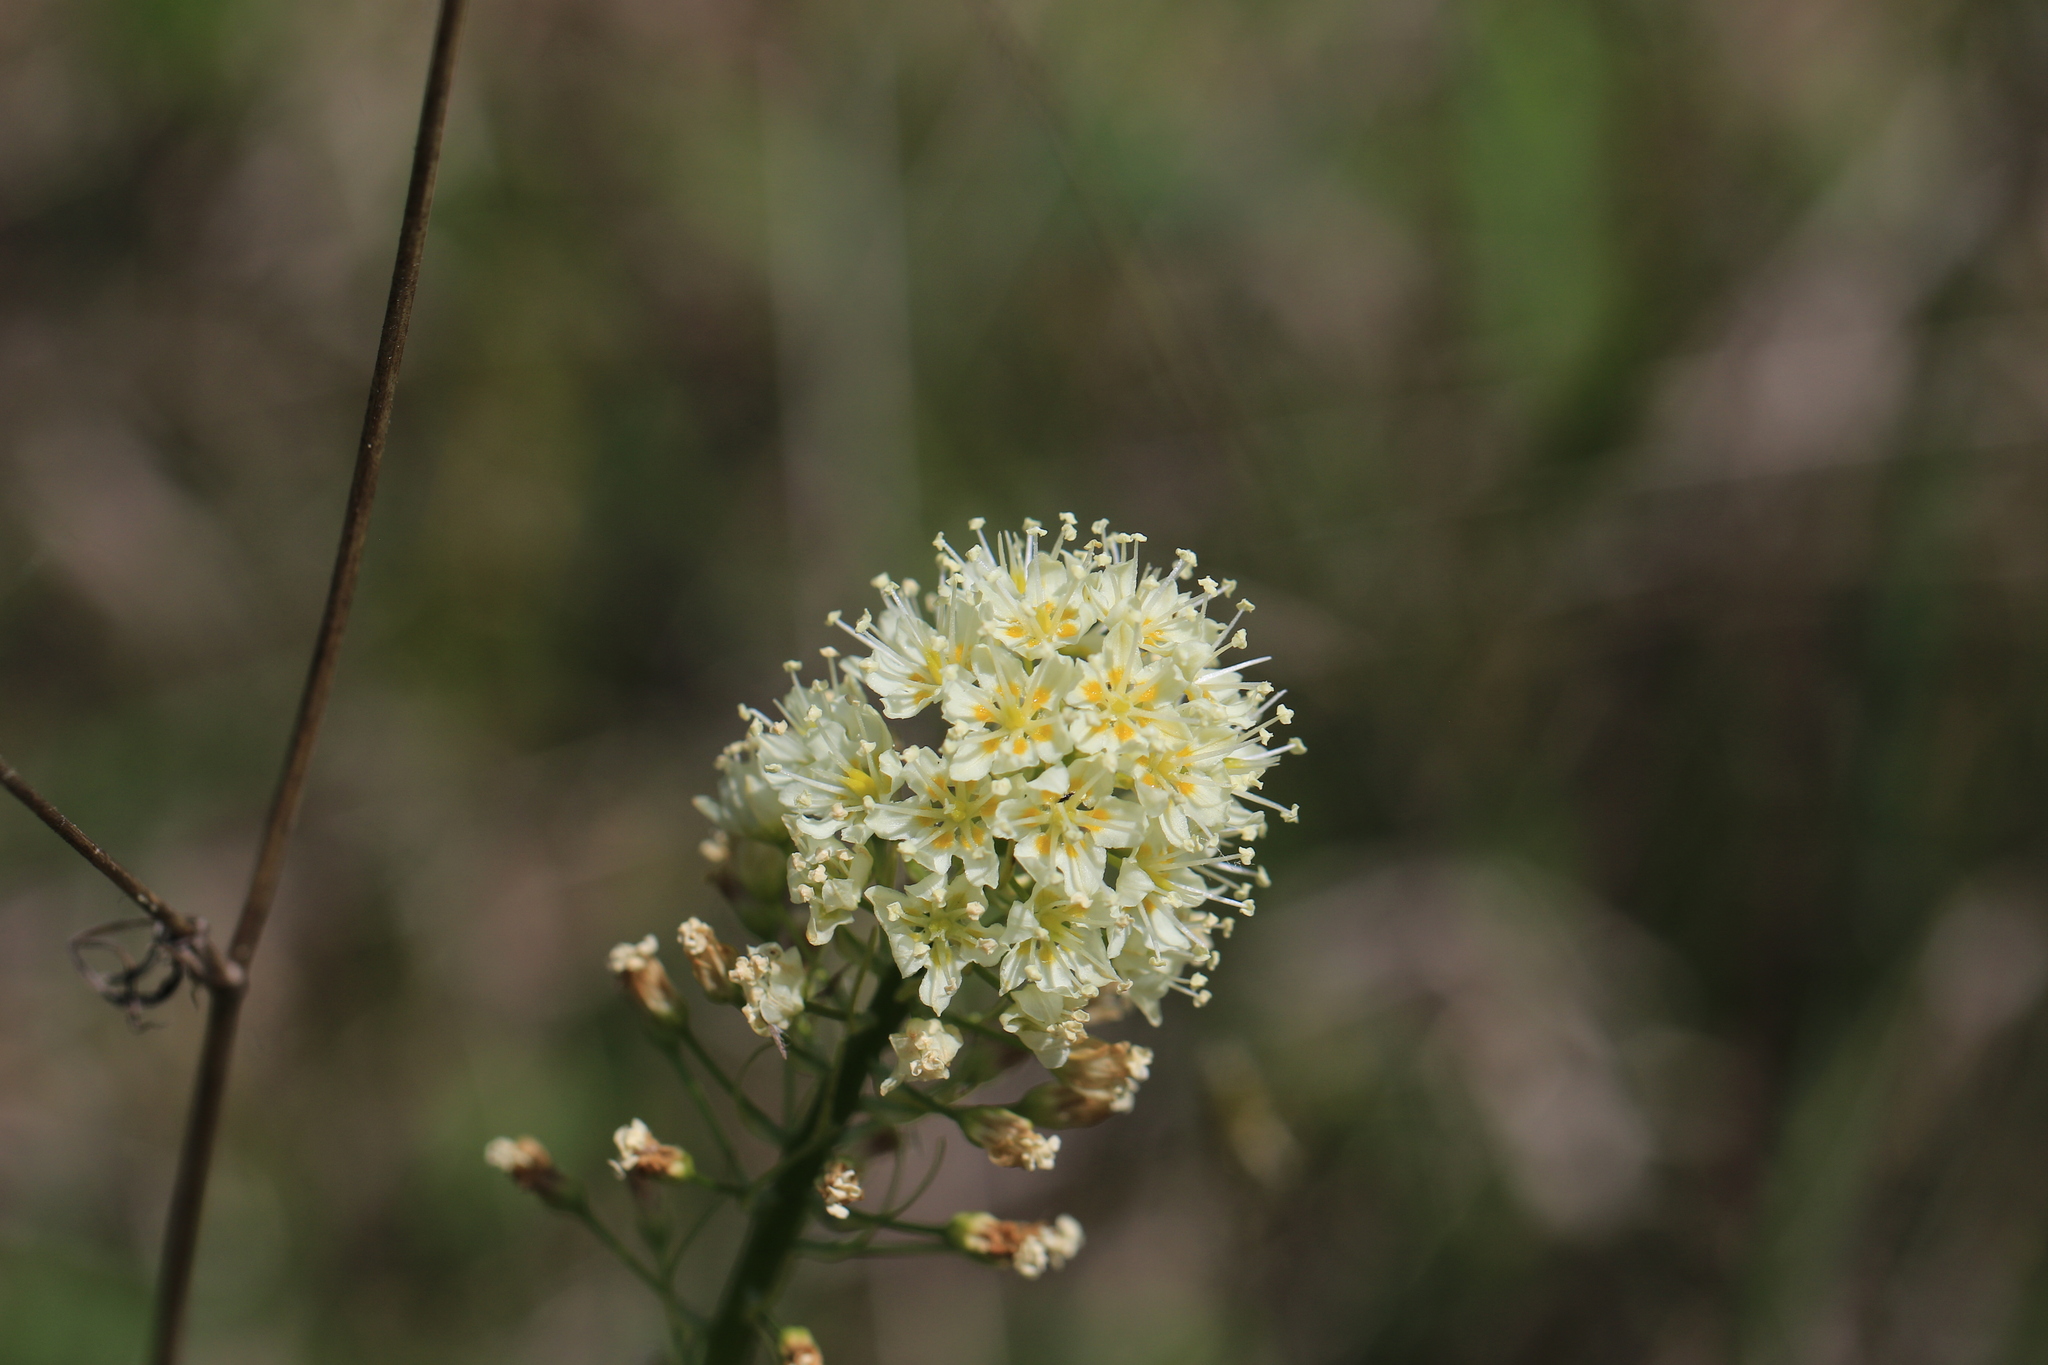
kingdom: Plantae
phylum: Tracheophyta
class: Liliopsida
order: Liliales
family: Melanthiaceae
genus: Toxicoscordion
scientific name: Toxicoscordion venenosum
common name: Meadow death camas
